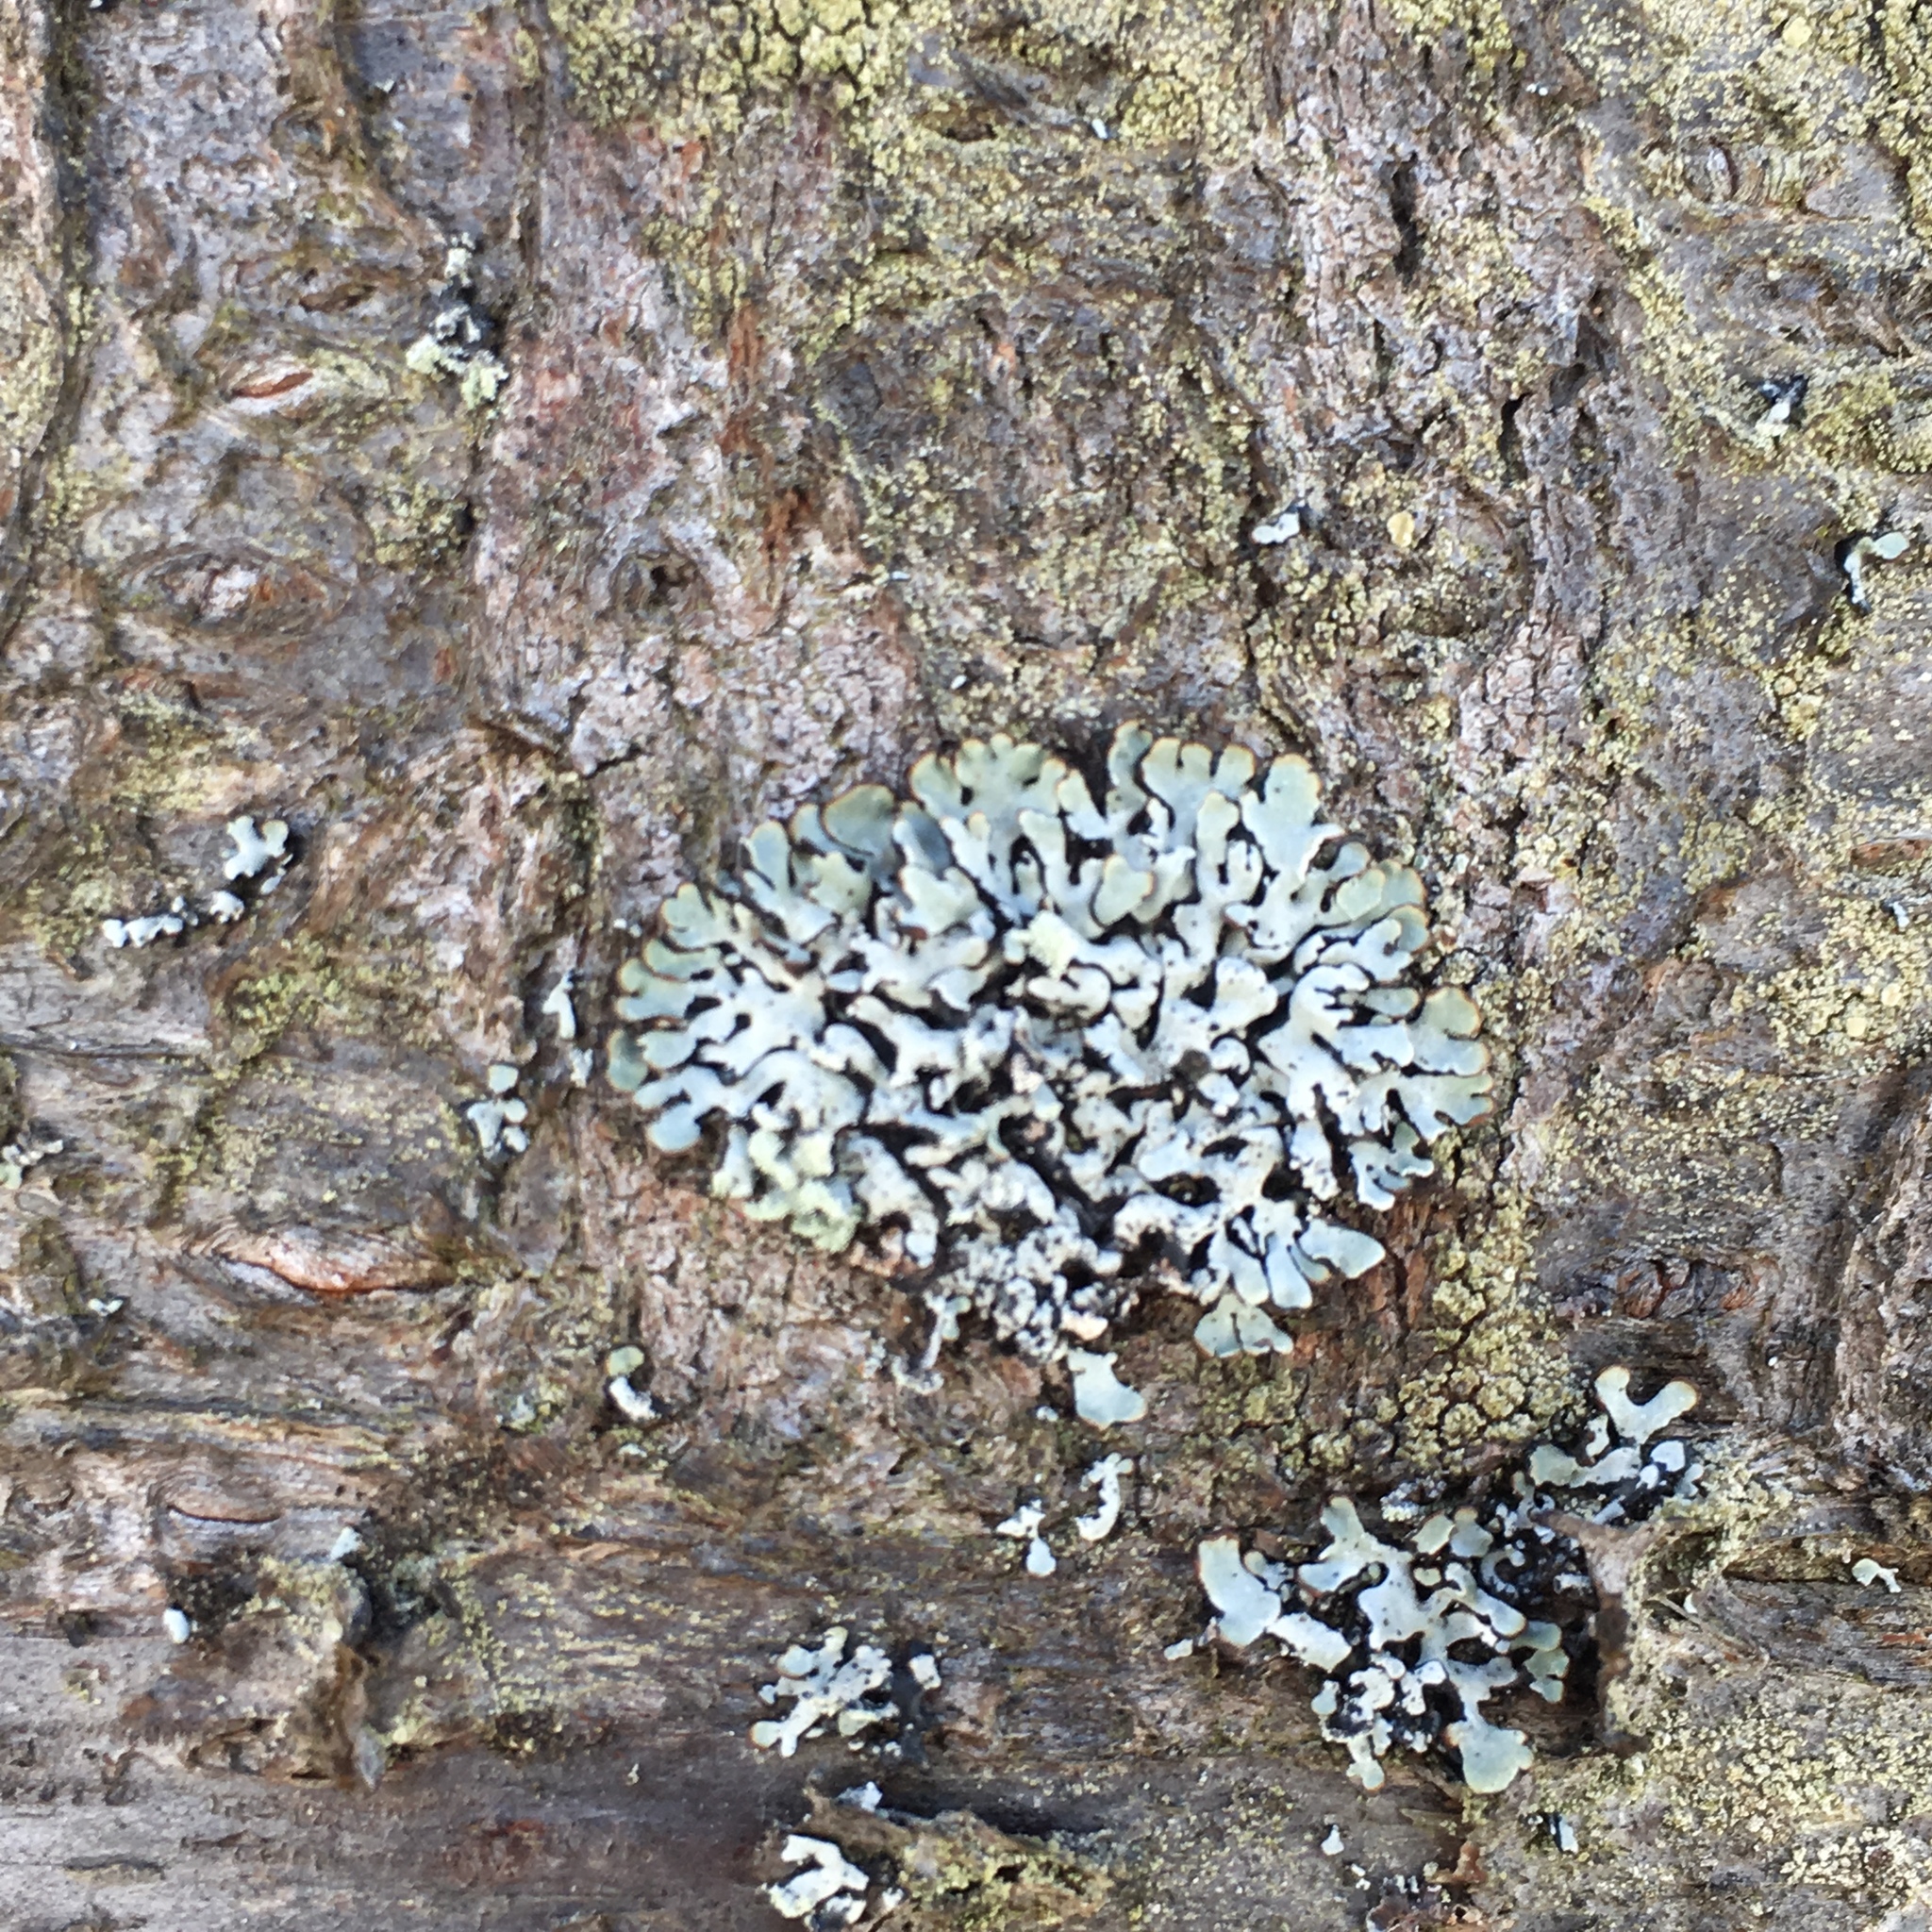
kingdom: Fungi
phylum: Ascomycota
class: Lecanoromycetes
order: Lecanorales
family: Parmeliaceae
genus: Hypogymnia
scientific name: Hypogymnia physodes
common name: Dark crottle
